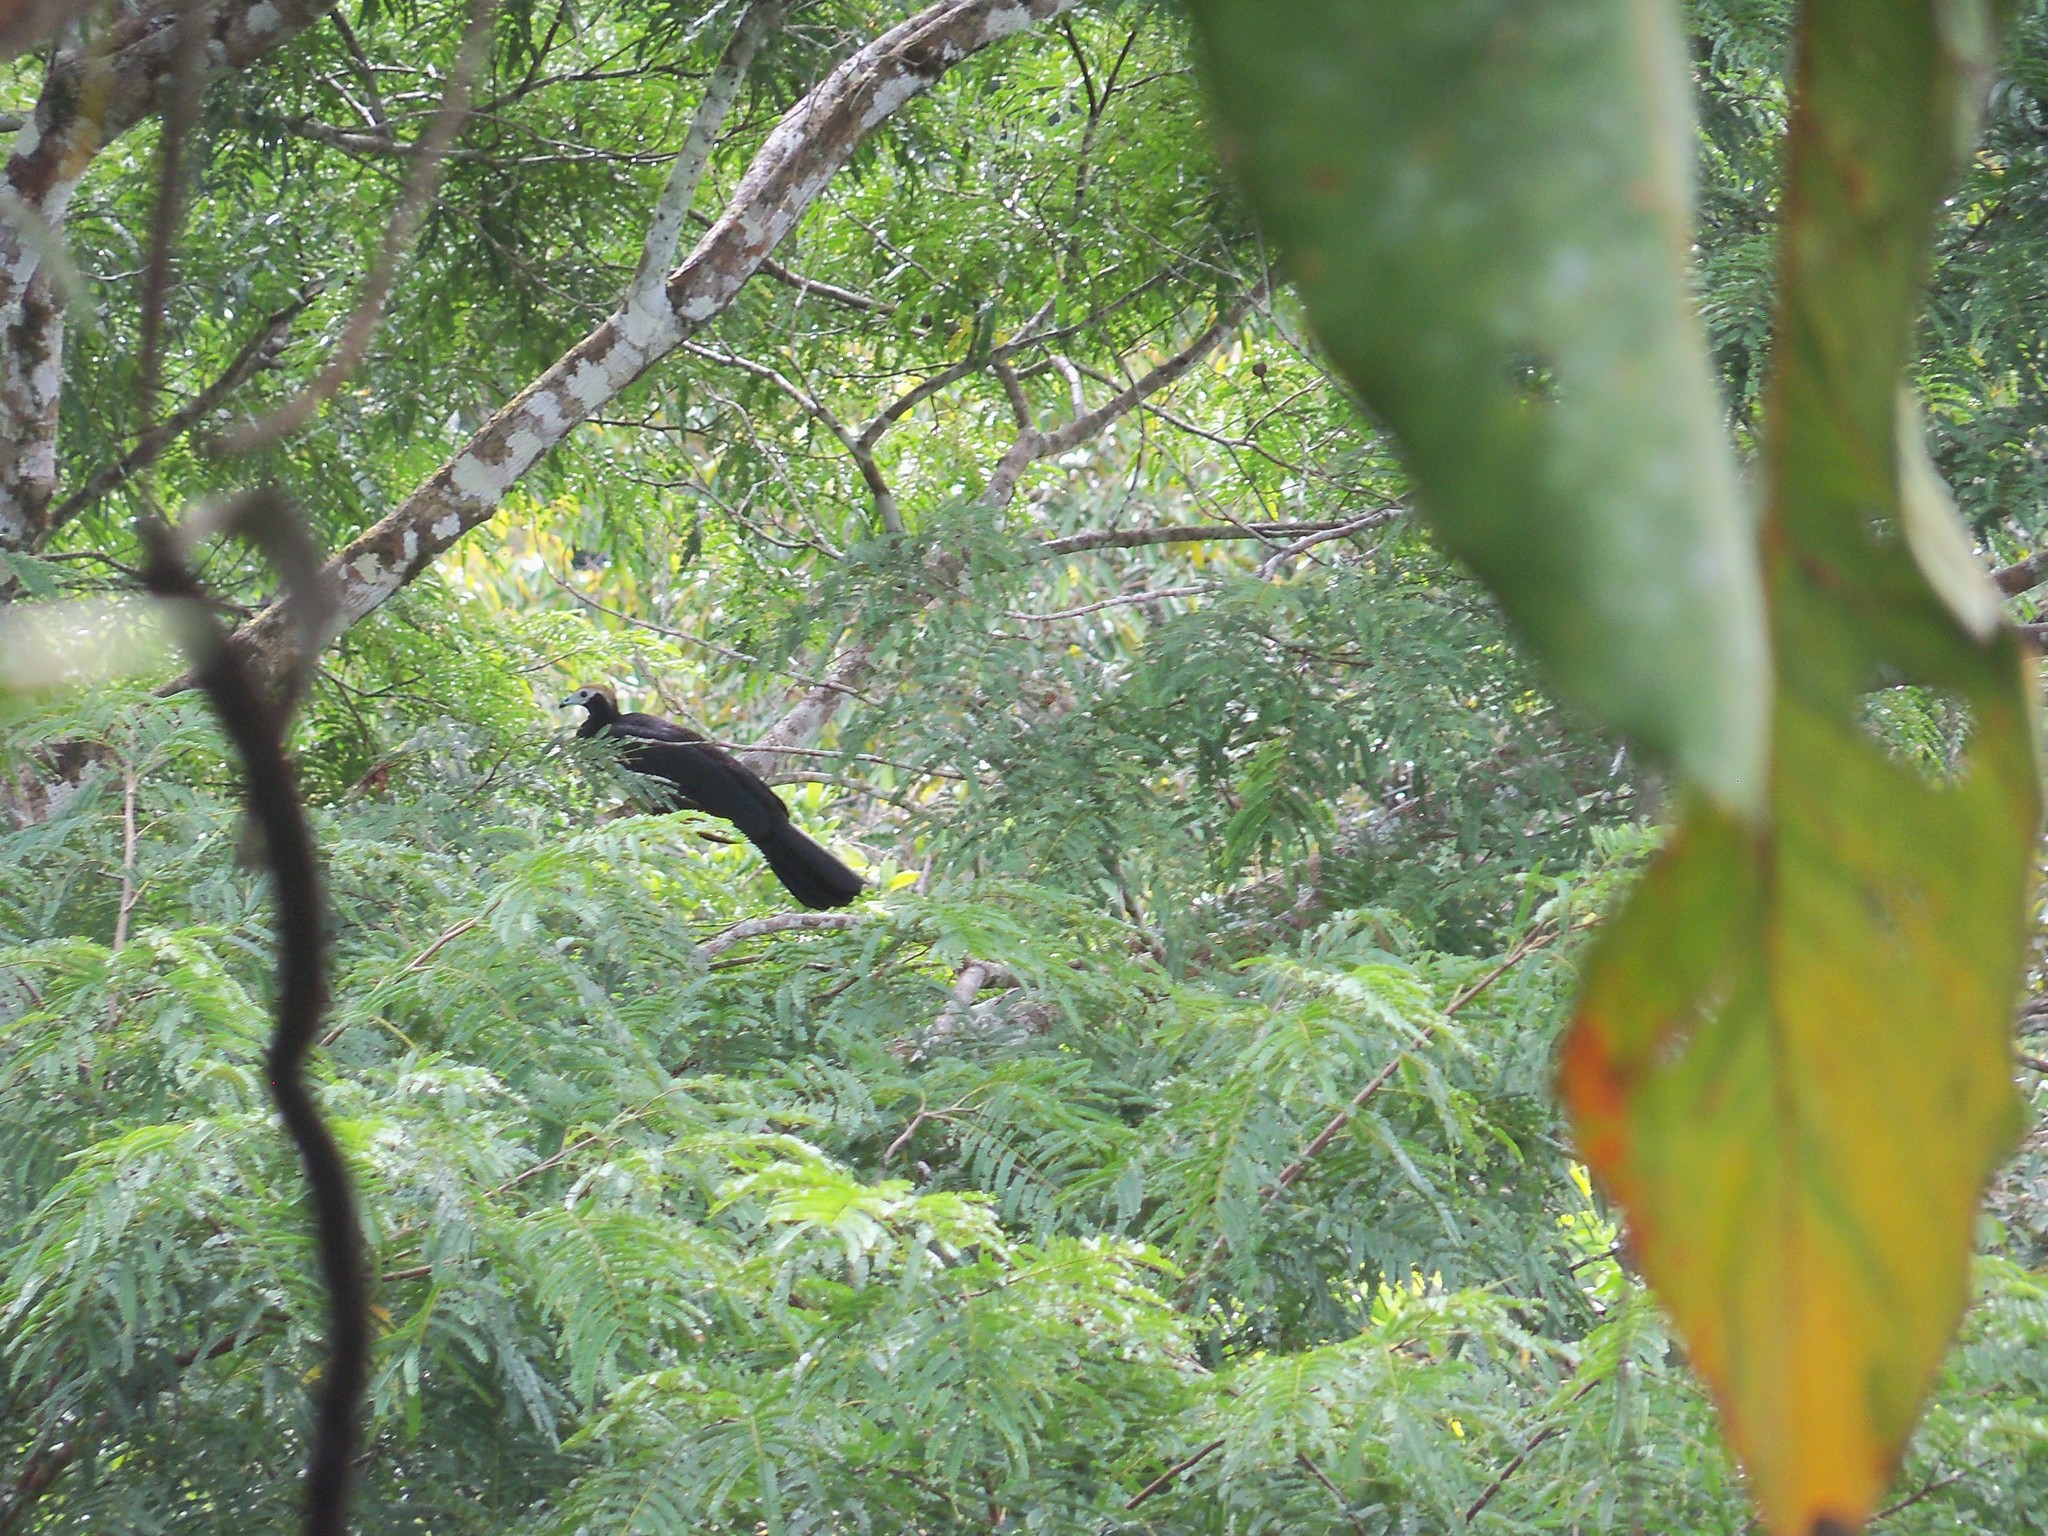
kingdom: Animalia
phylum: Chordata
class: Aves
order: Galliformes
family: Cracidae
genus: Pipile
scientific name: Pipile cumanensis
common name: Blue-throated piping-guan
